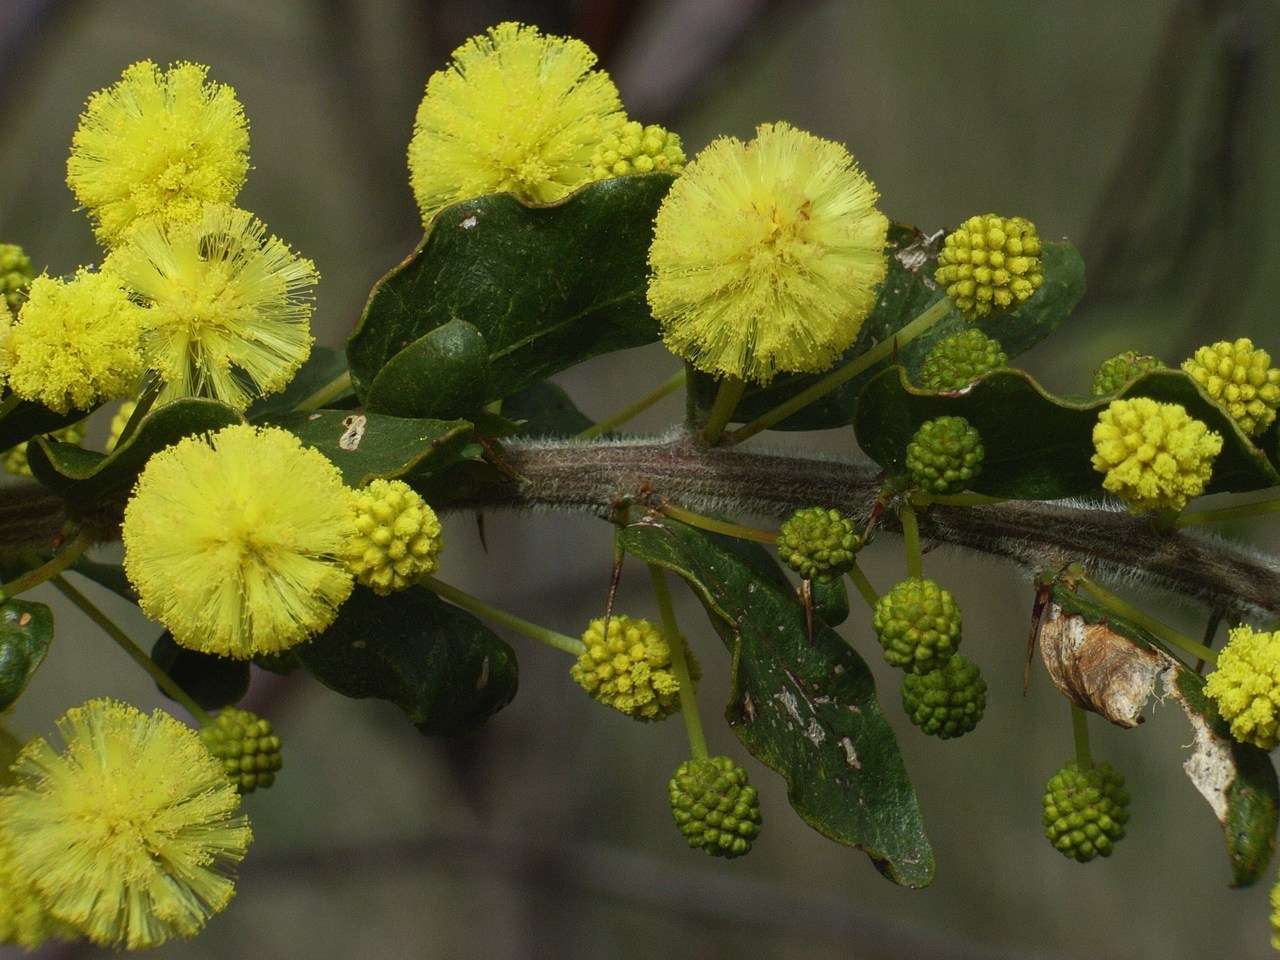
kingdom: Plantae
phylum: Tracheophyta
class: Magnoliopsida
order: Fabales
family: Fabaceae
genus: Acacia
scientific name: Acacia paradoxa
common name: Paradox acacia
